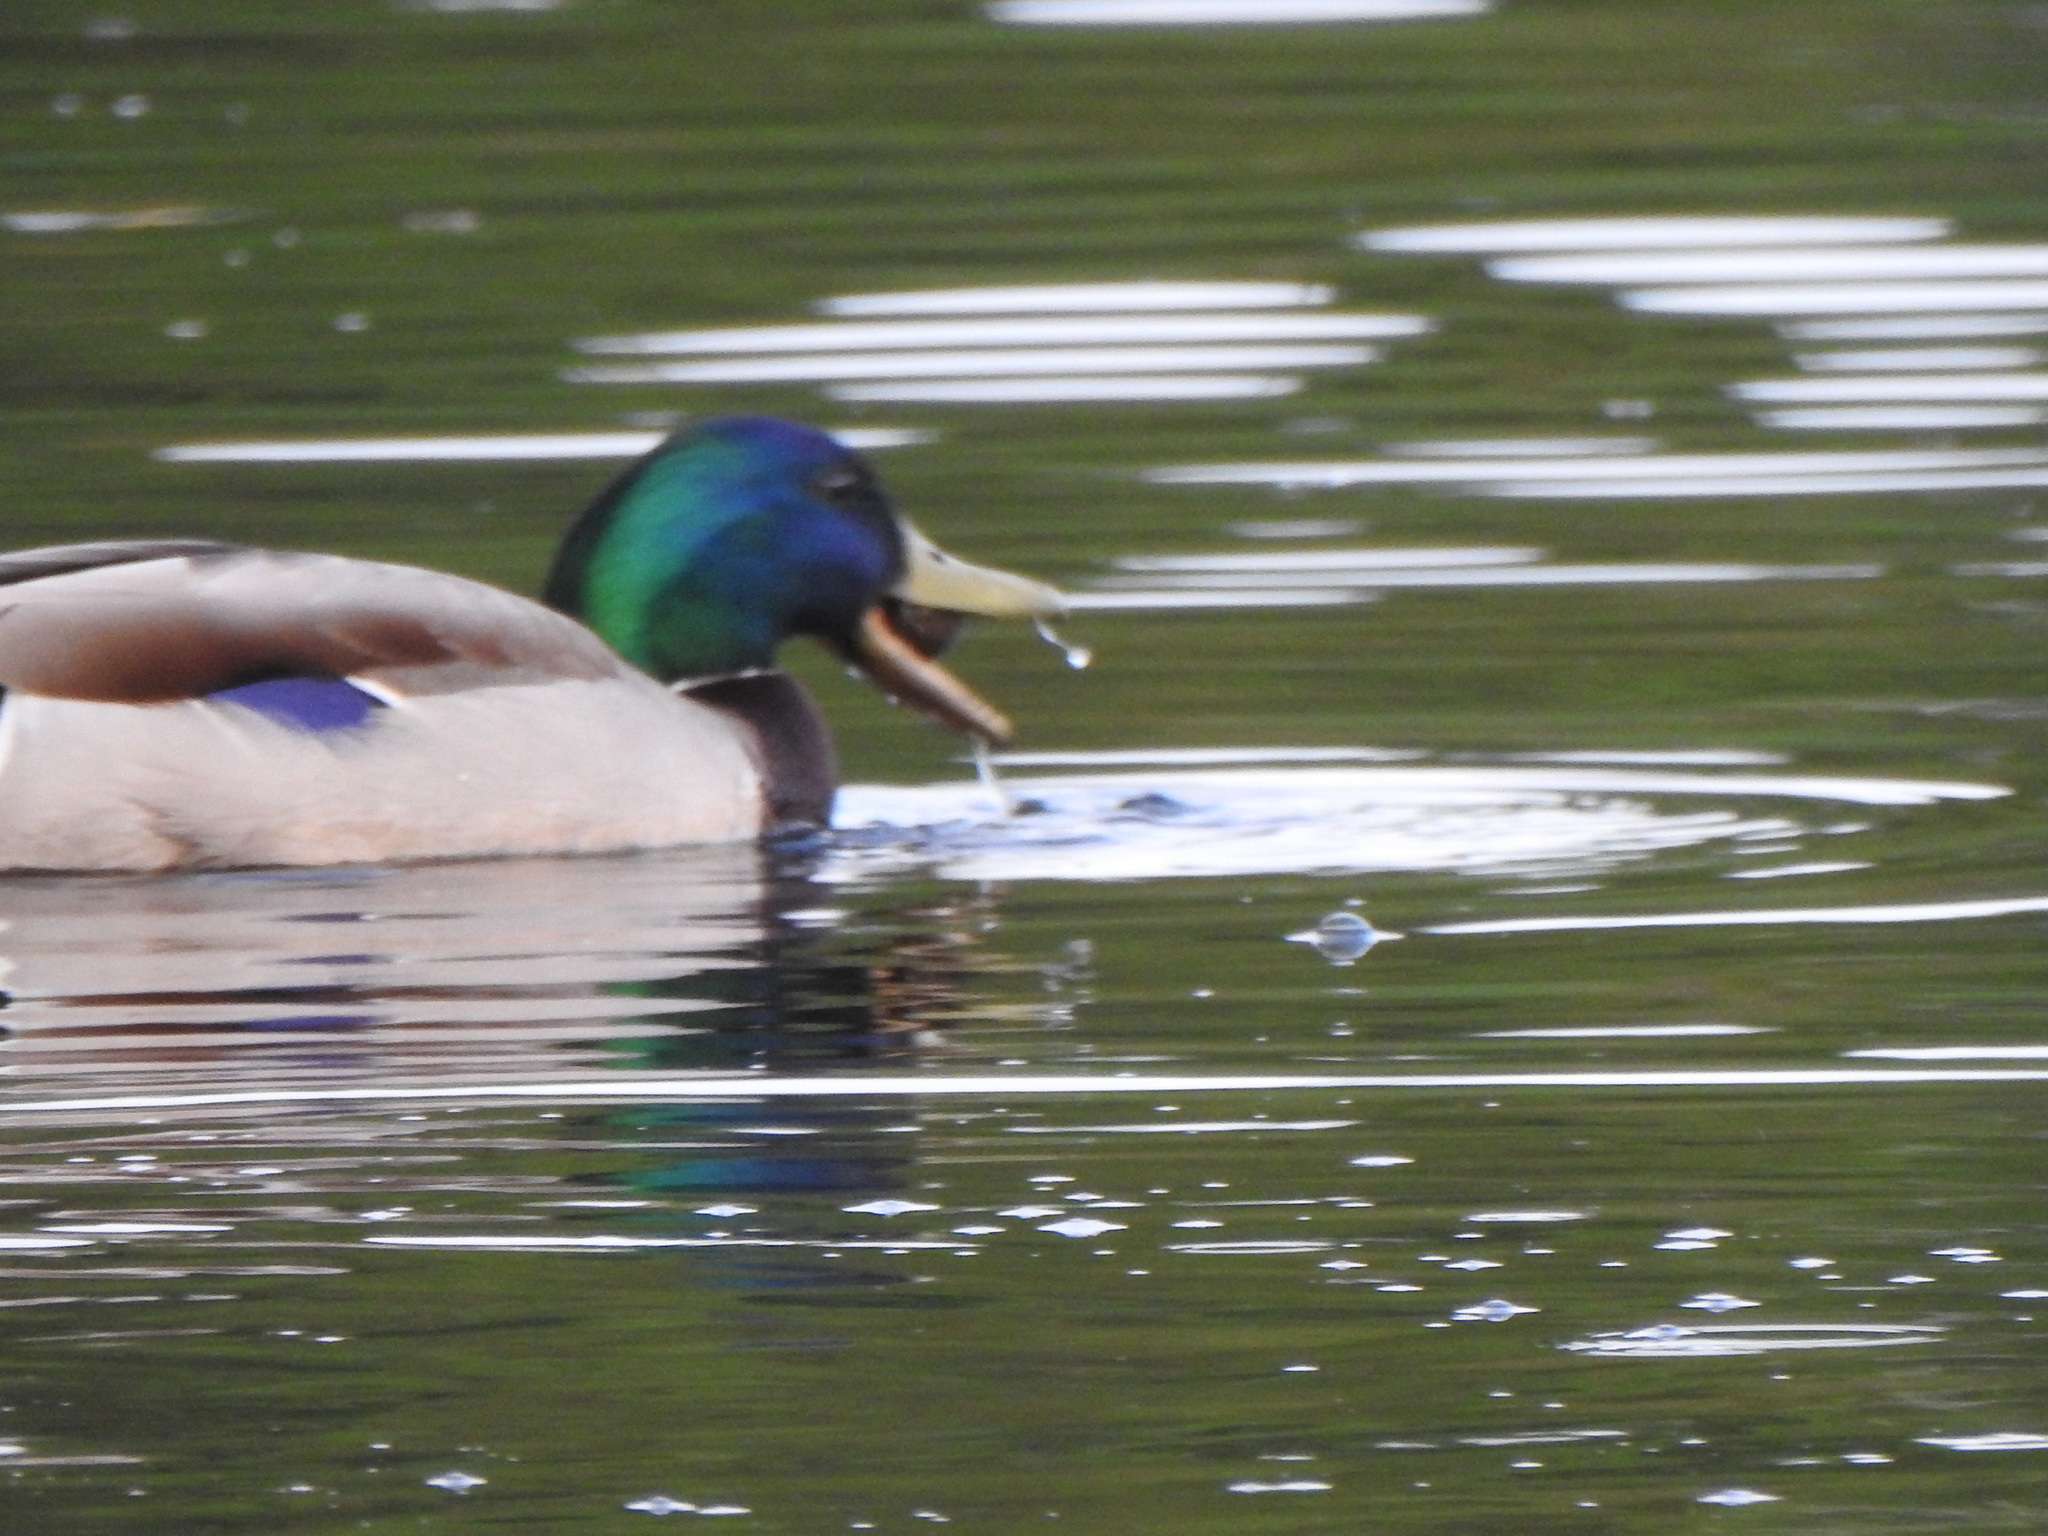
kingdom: Animalia
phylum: Chordata
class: Aves
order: Anseriformes
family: Anatidae
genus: Anas
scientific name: Anas platyrhynchos
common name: Mallard
